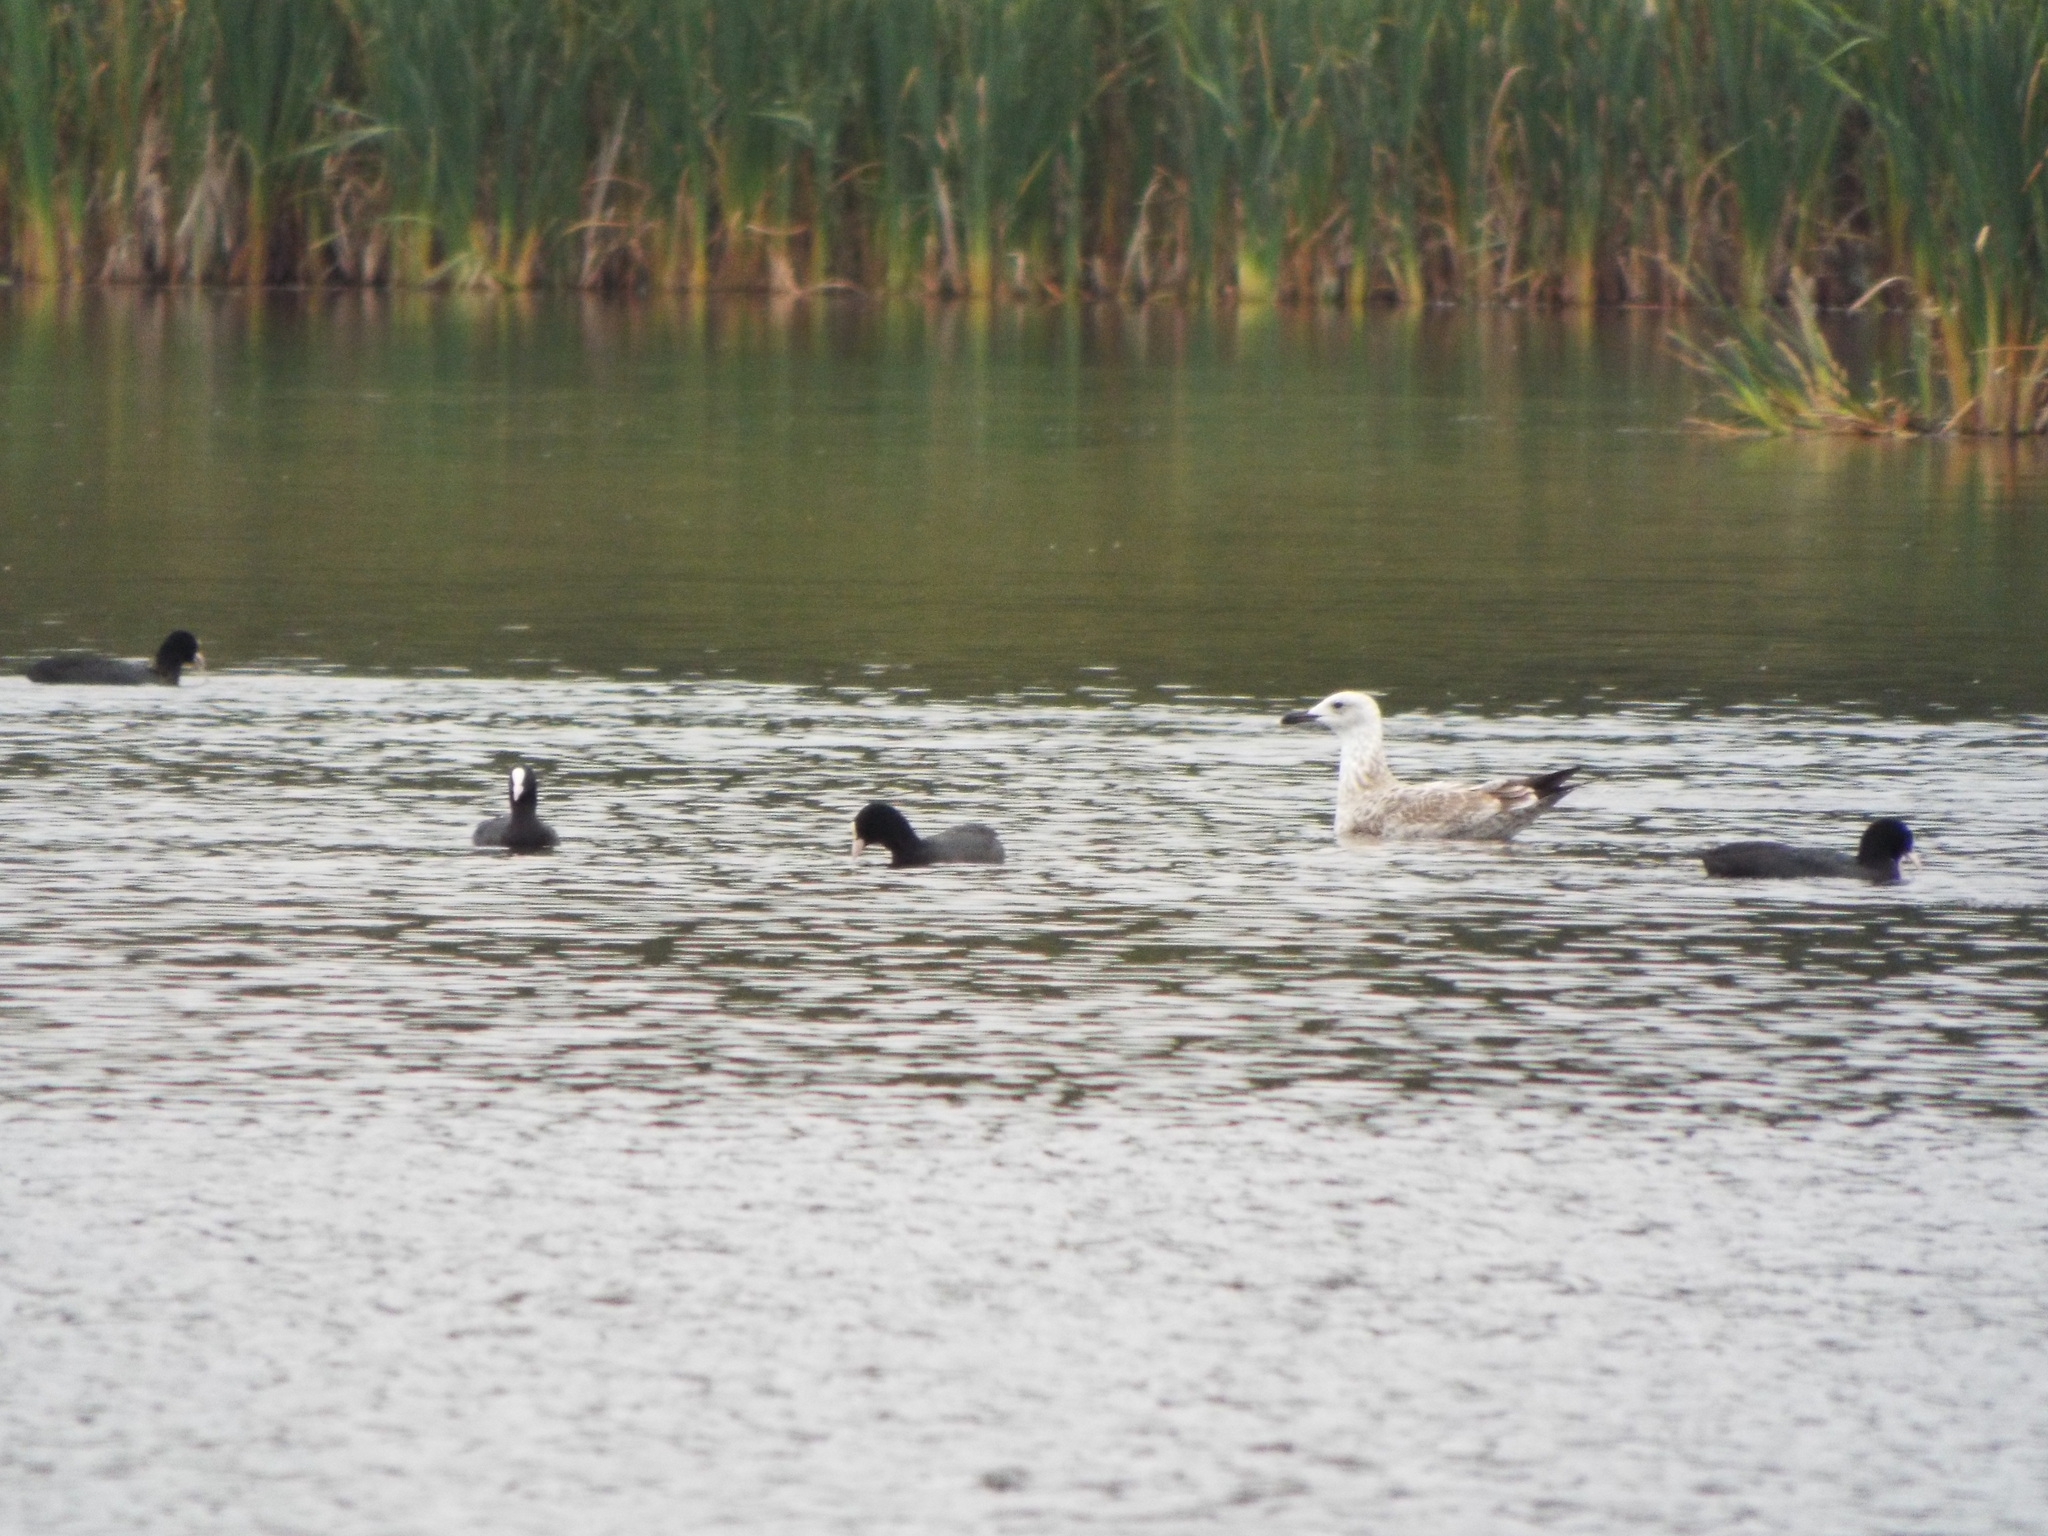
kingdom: Animalia
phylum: Chordata
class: Aves
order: Gruiformes
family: Rallidae
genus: Fulica
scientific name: Fulica atra
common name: Eurasian coot
